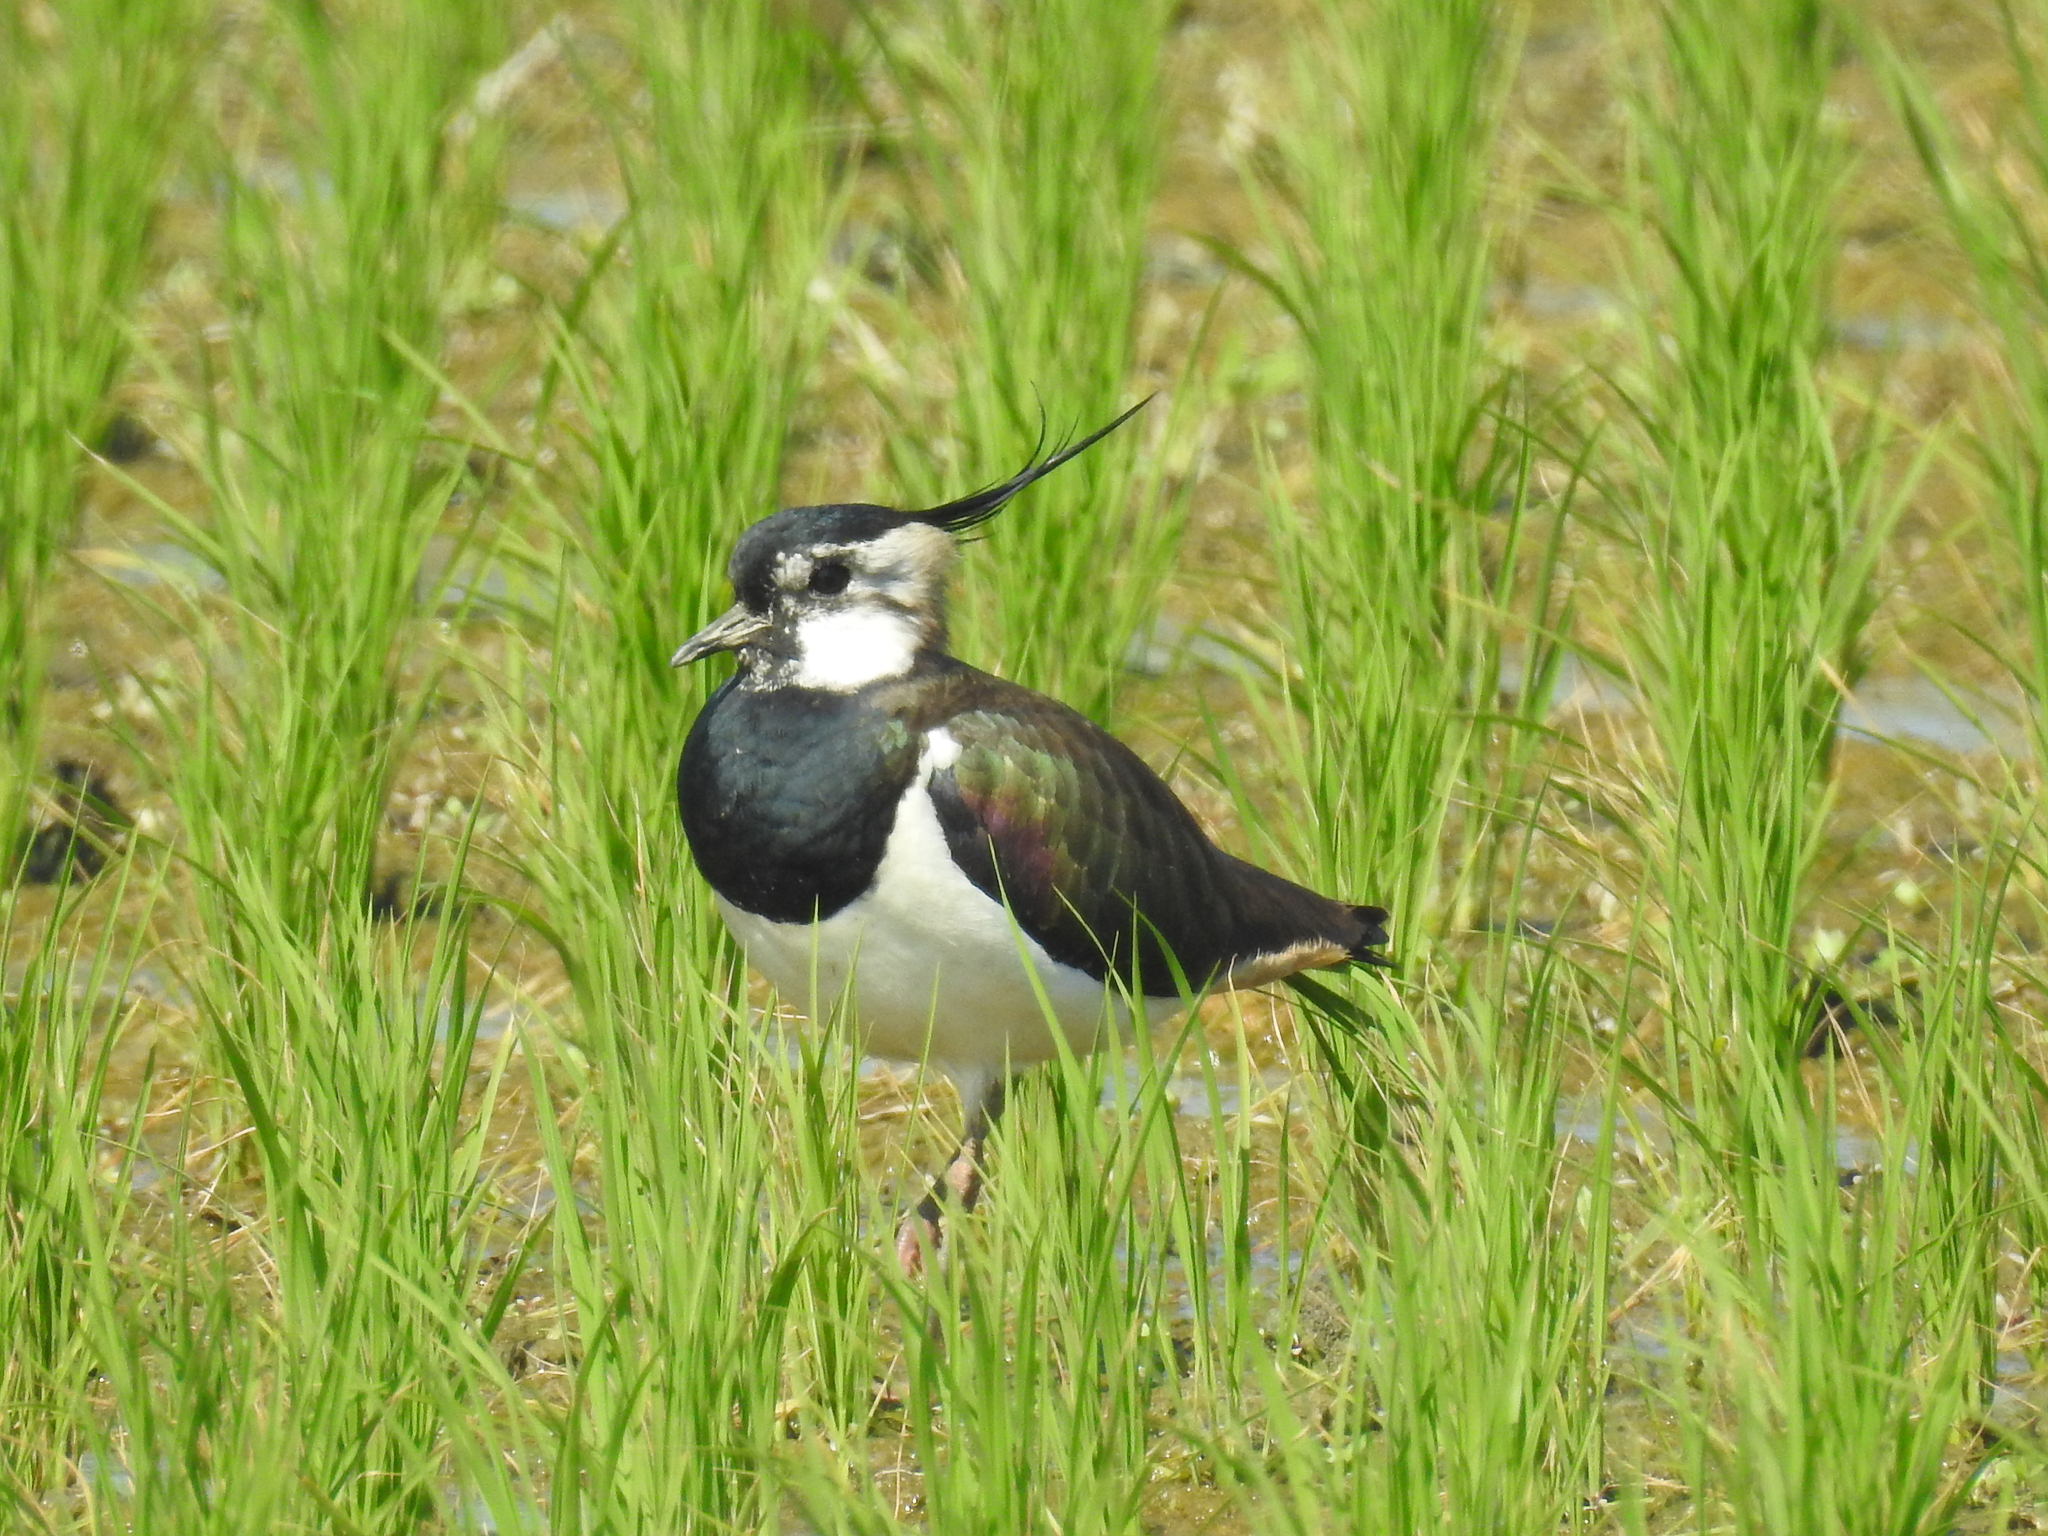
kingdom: Animalia
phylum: Chordata
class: Aves
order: Charadriiformes
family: Charadriidae
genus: Vanellus
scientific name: Vanellus vanellus
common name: Northern lapwing
